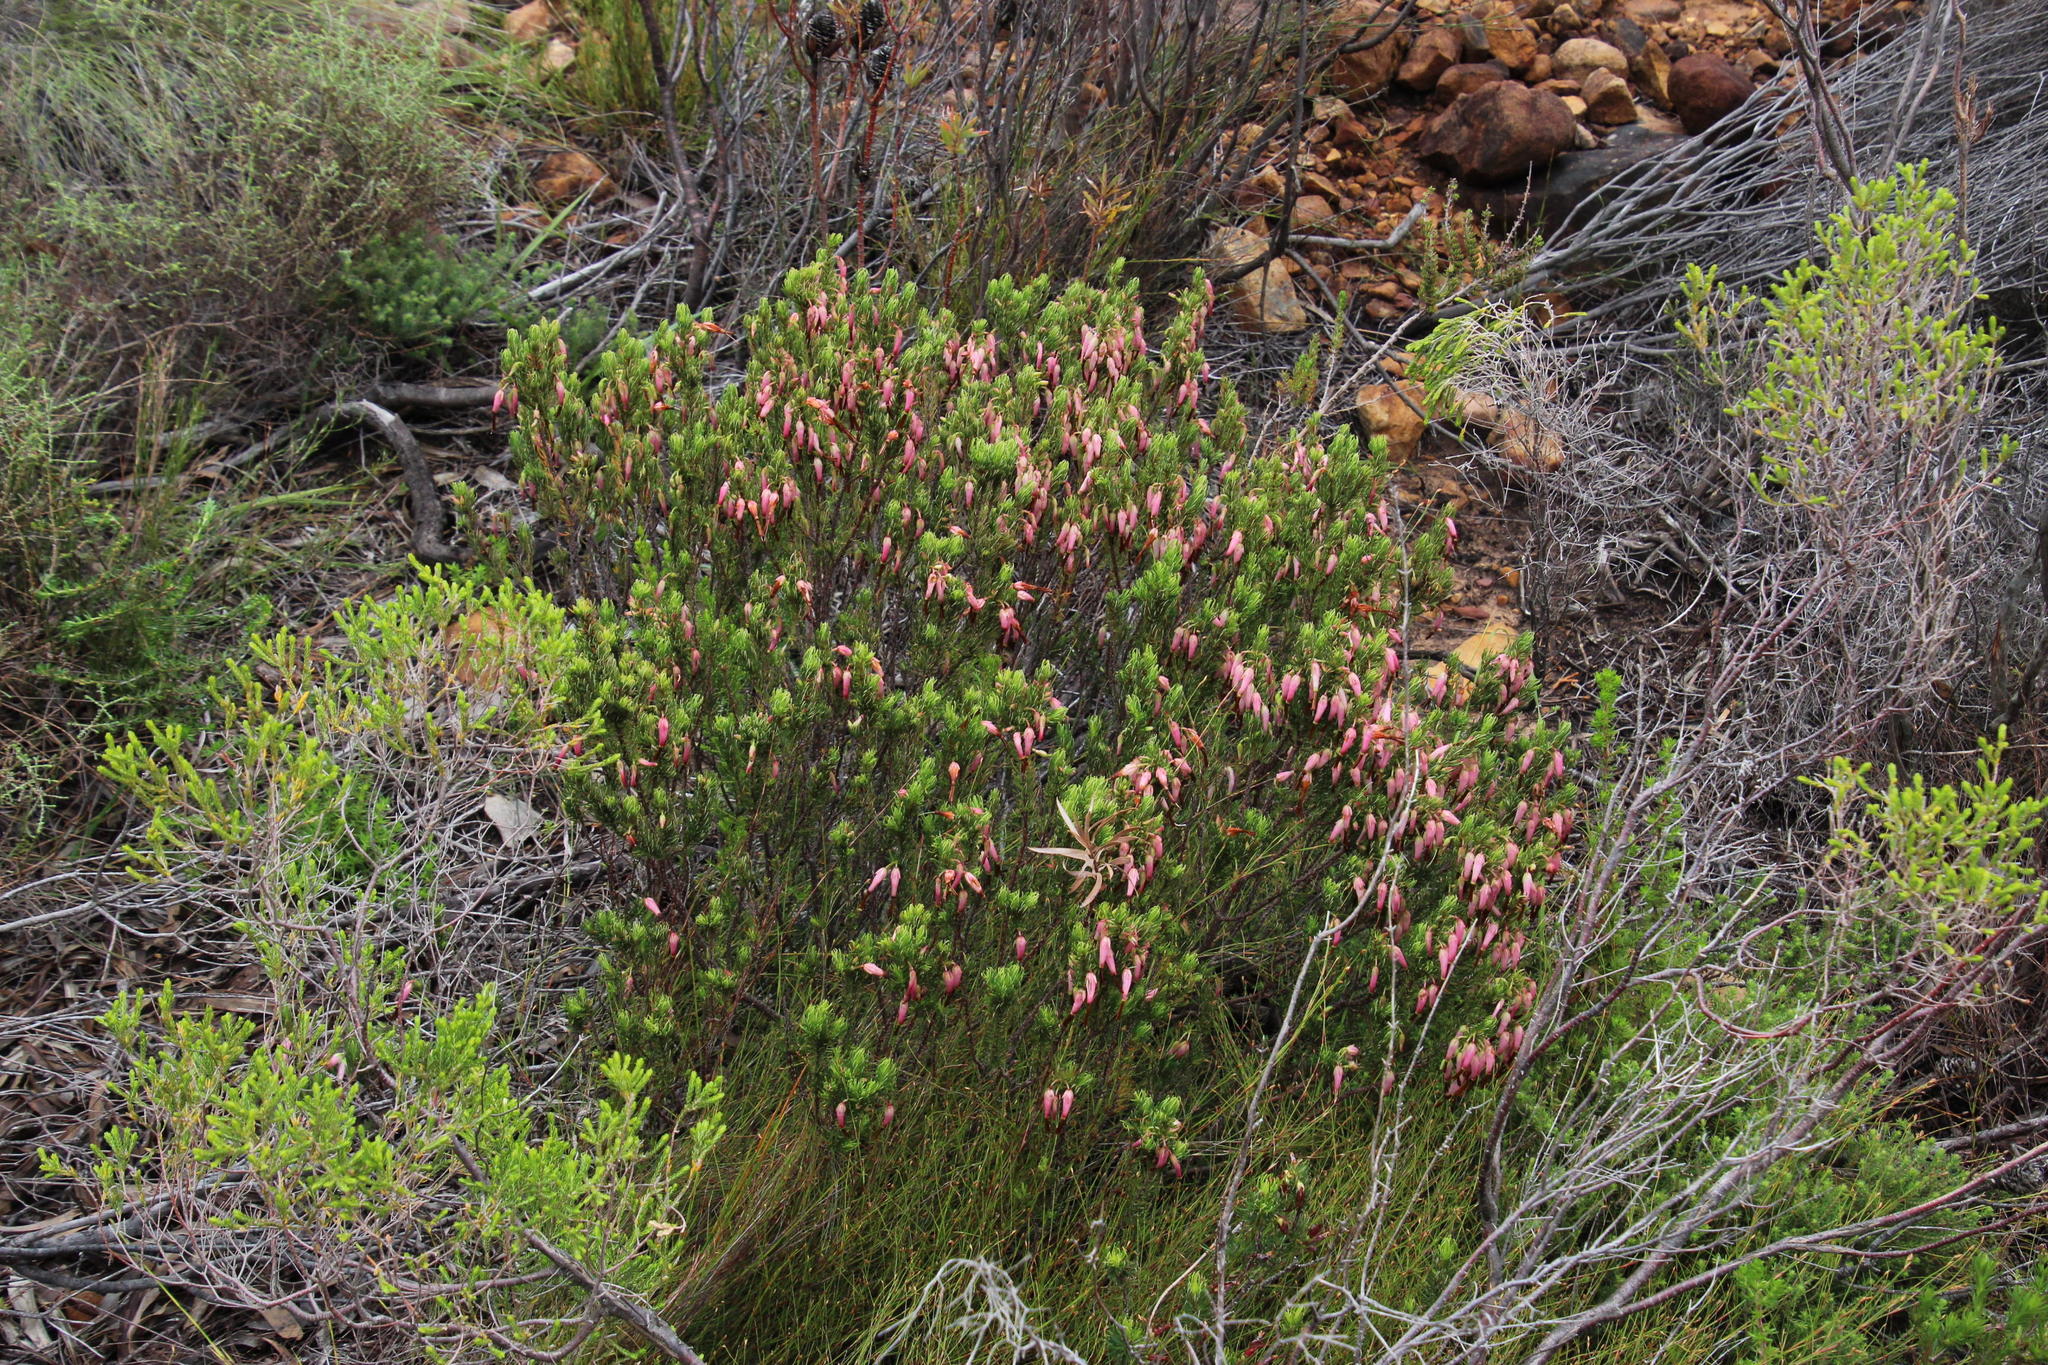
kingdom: Plantae
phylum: Tracheophyta
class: Magnoliopsida
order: Ericales
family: Ericaceae
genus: Erica
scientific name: Erica plukenetii
